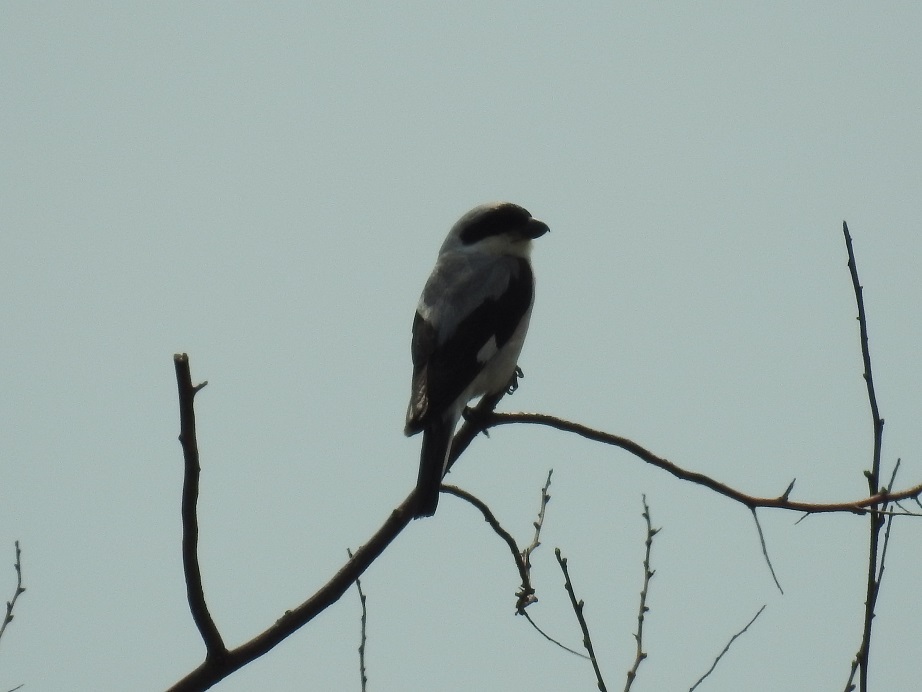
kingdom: Animalia
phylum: Chordata
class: Aves
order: Passeriformes
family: Laniidae
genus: Lanius
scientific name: Lanius minor
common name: Lesser grey shrike
